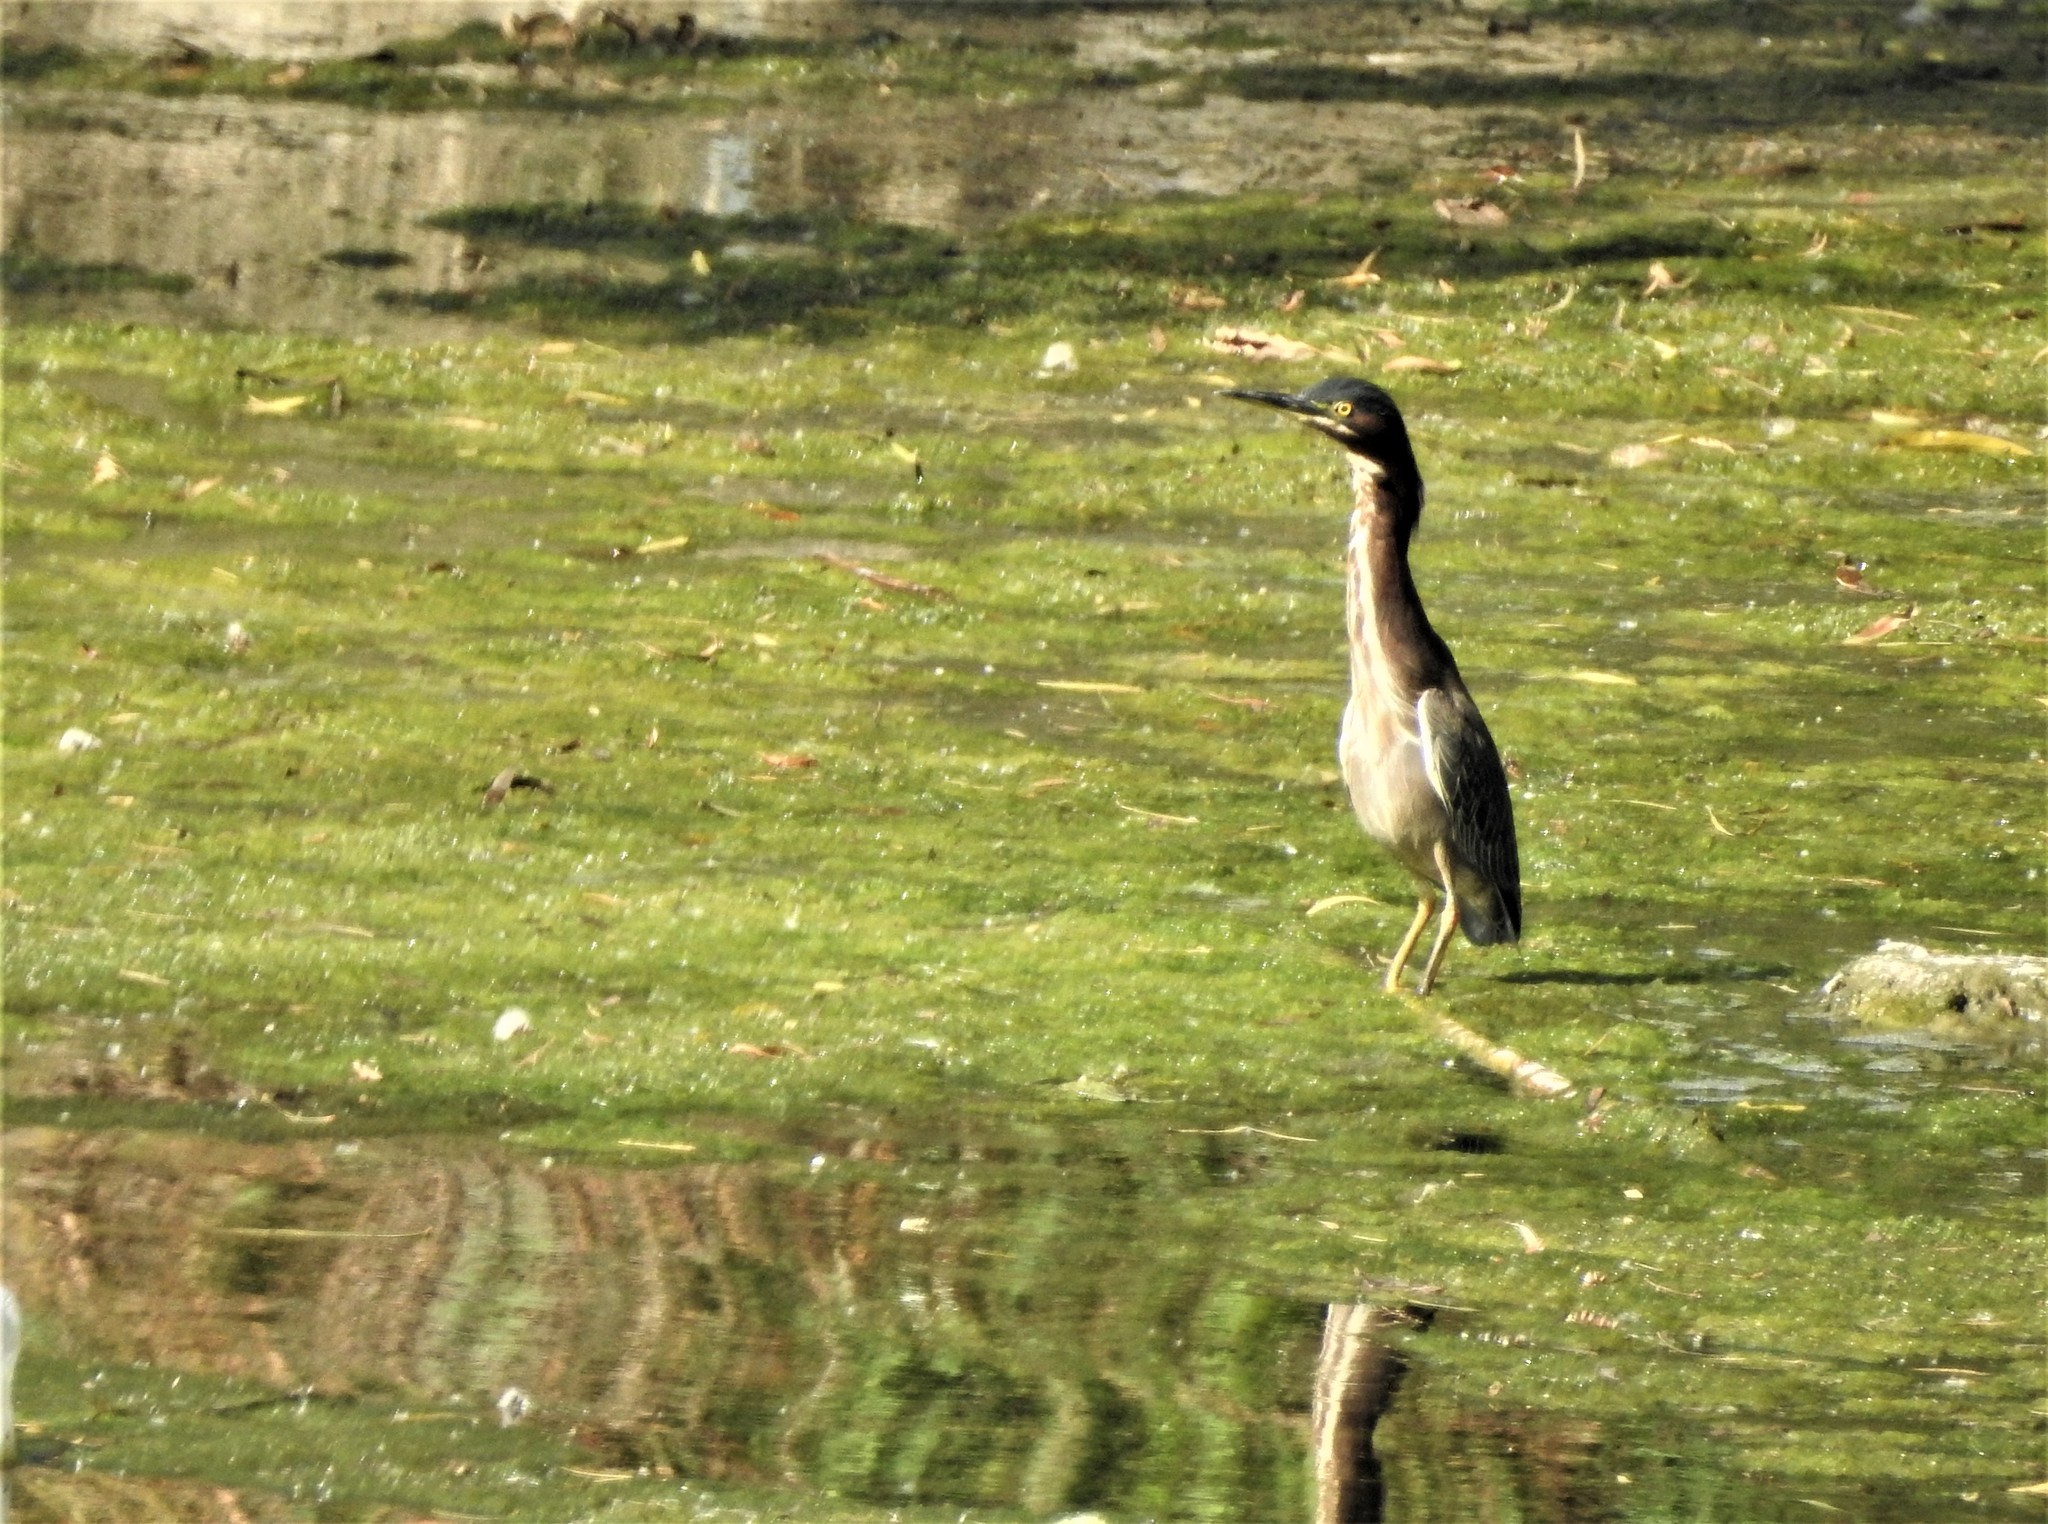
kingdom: Animalia
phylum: Chordata
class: Aves
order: Pelecaniformes
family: Ardeidae
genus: Butorides
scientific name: Butorides virescens
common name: Green heron
